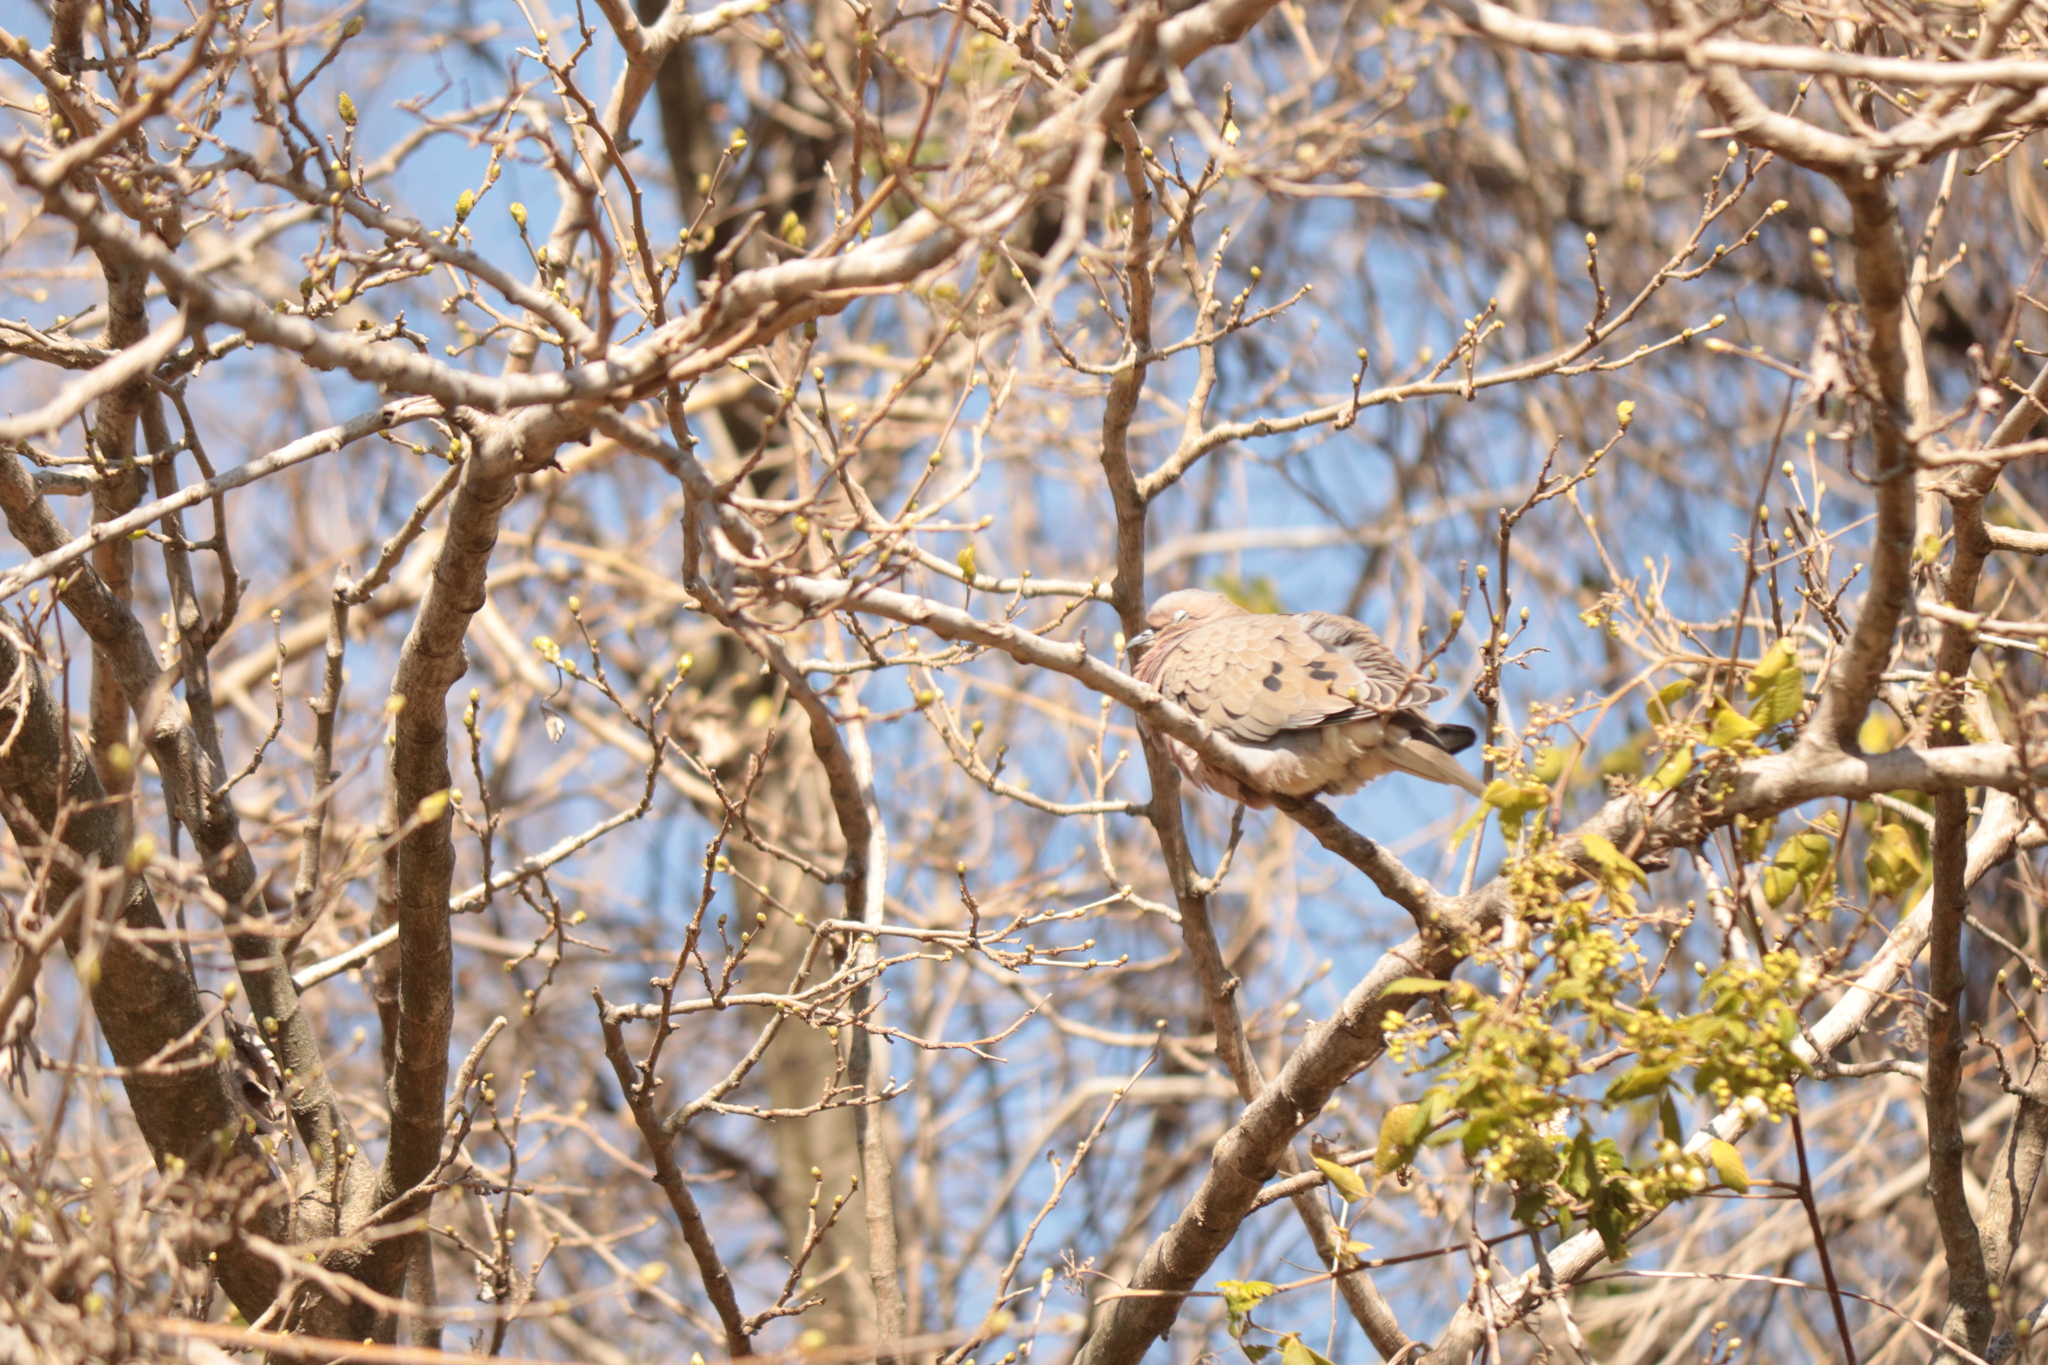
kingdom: Animalia
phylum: Chordata
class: Aves
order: Columbiformes
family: Columbidae
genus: Zenaida
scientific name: Zenaida auriculata
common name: Eared dove
